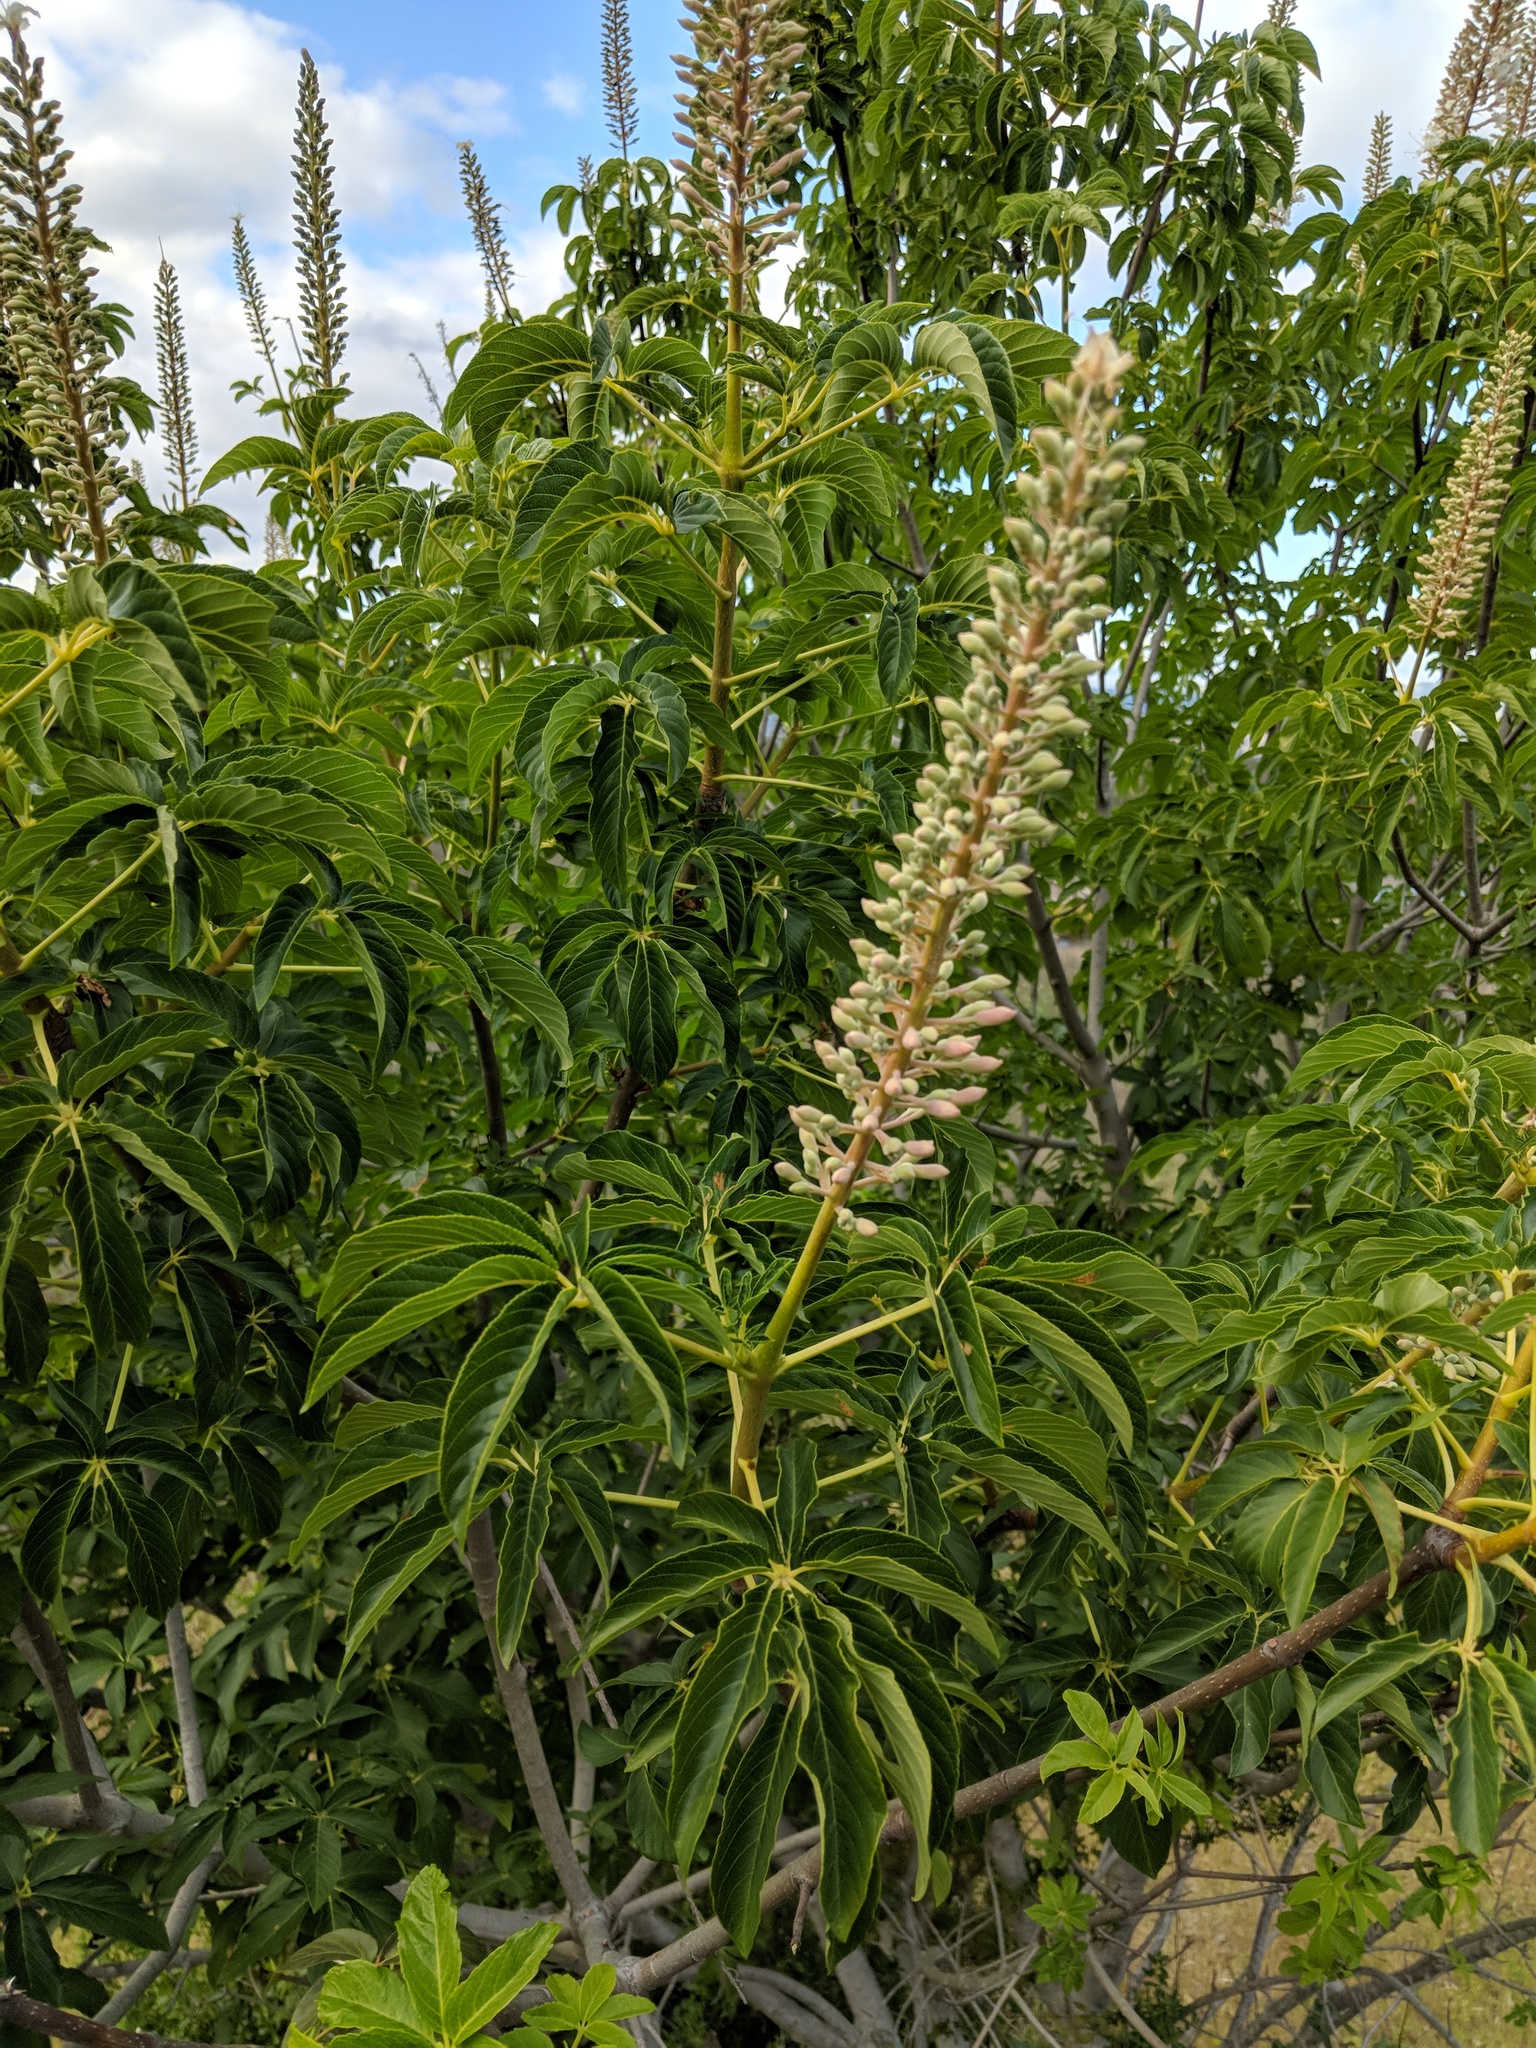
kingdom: Plantae
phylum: Tracheophyta
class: Magnoliopsida
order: Sapindales
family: Sapindaceae
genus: Aesculus
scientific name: Aesculus californica
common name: California buckeye
